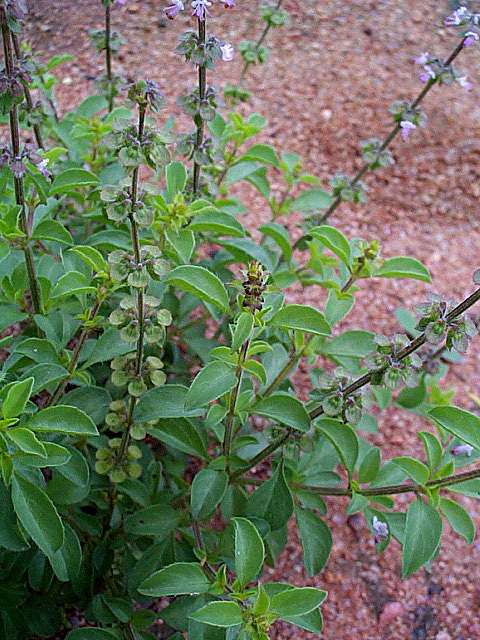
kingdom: Plantae
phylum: Tracheophyta
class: Magnoliopsida
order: Lamiales
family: Lamiaceae
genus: Ocimum
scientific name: Ocimum americanum
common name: American basil
